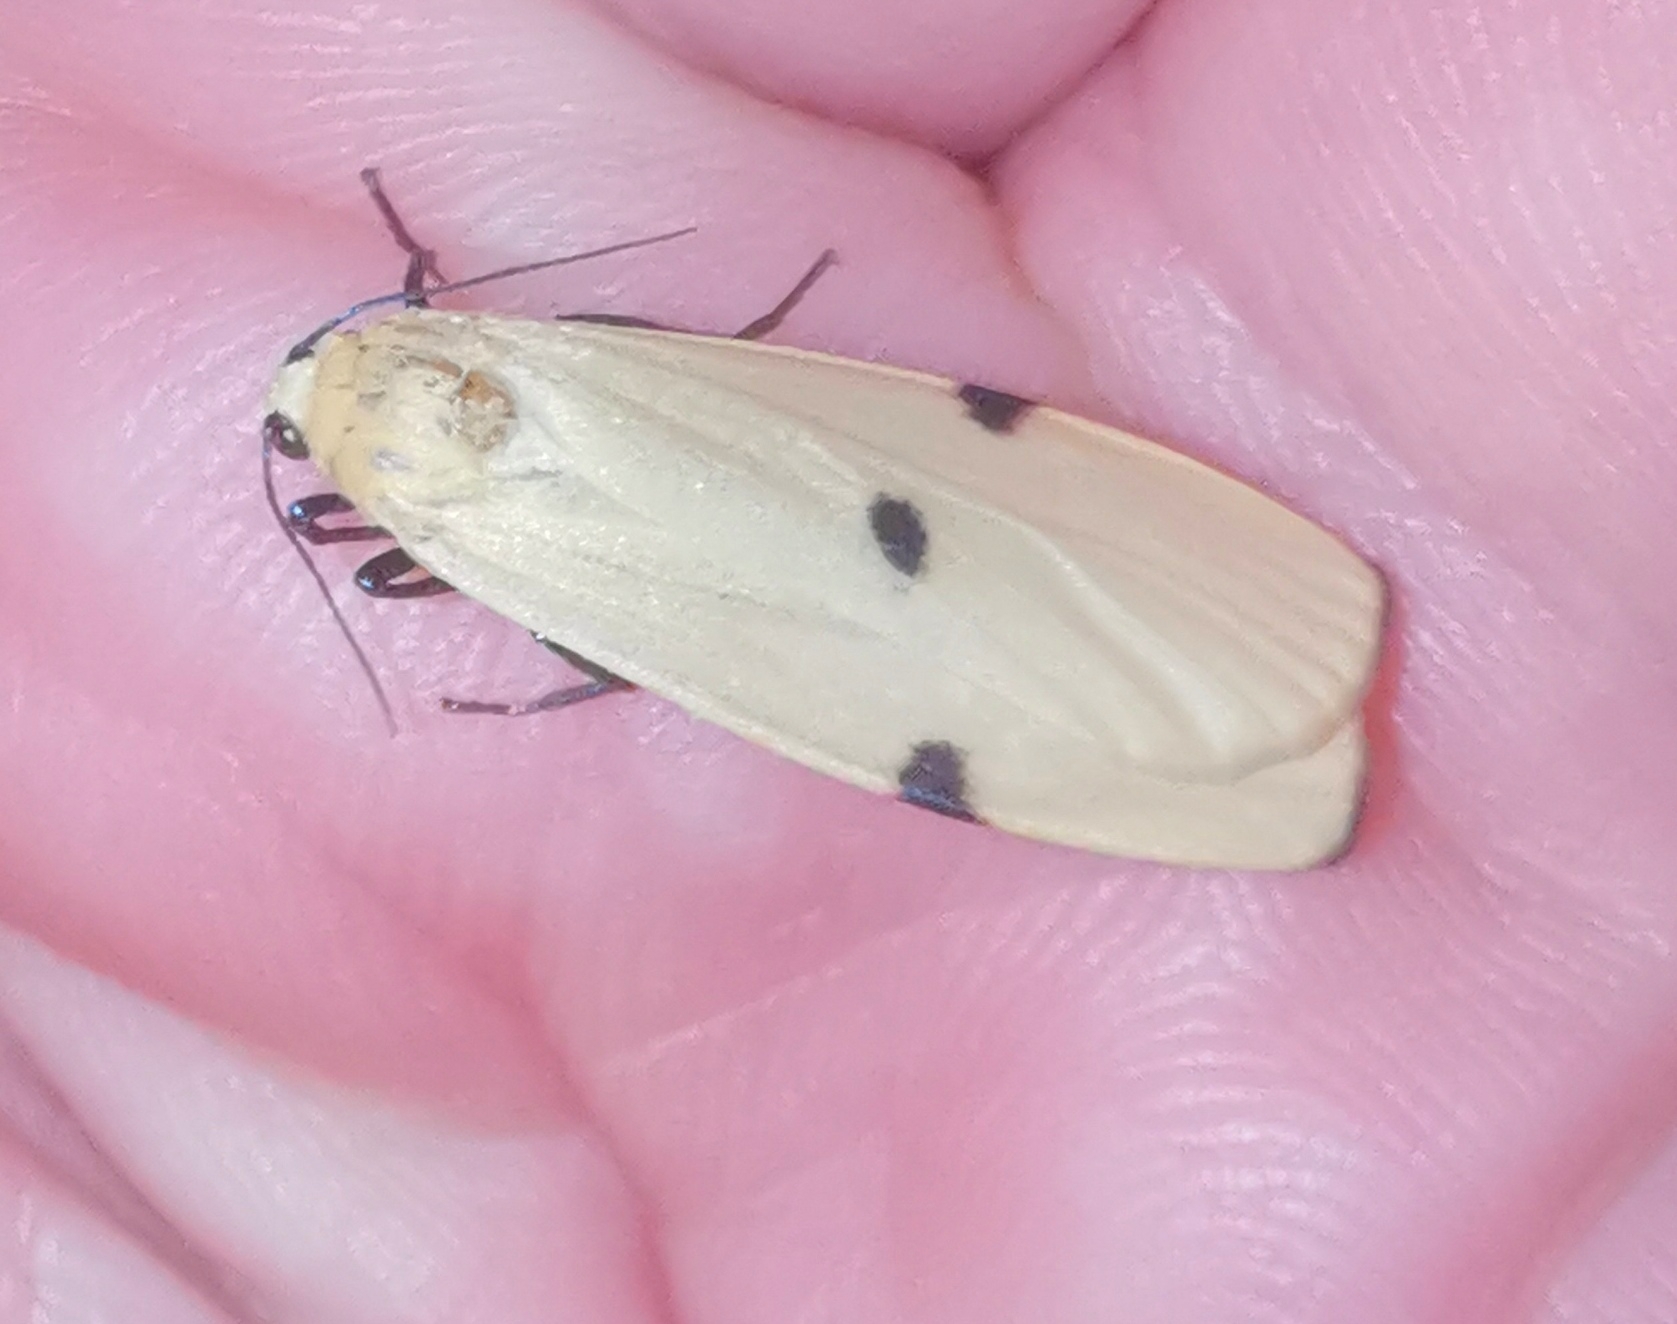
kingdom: Animalia
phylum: Arthropoda
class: Insecta
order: Lepidoptera
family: Erebidae
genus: Lithosia
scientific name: Lithosia quadra
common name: Four-spotted footman
